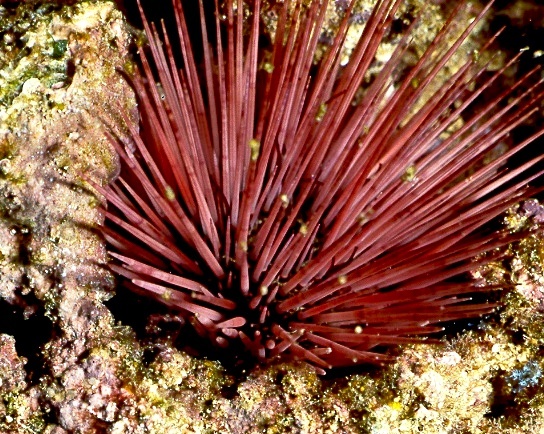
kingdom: Animalia
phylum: Echinodermata
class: Echinoidea
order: Camarodonta
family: Echinometridae
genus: Echinostrephus
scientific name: Echinostrephus aciculatus
